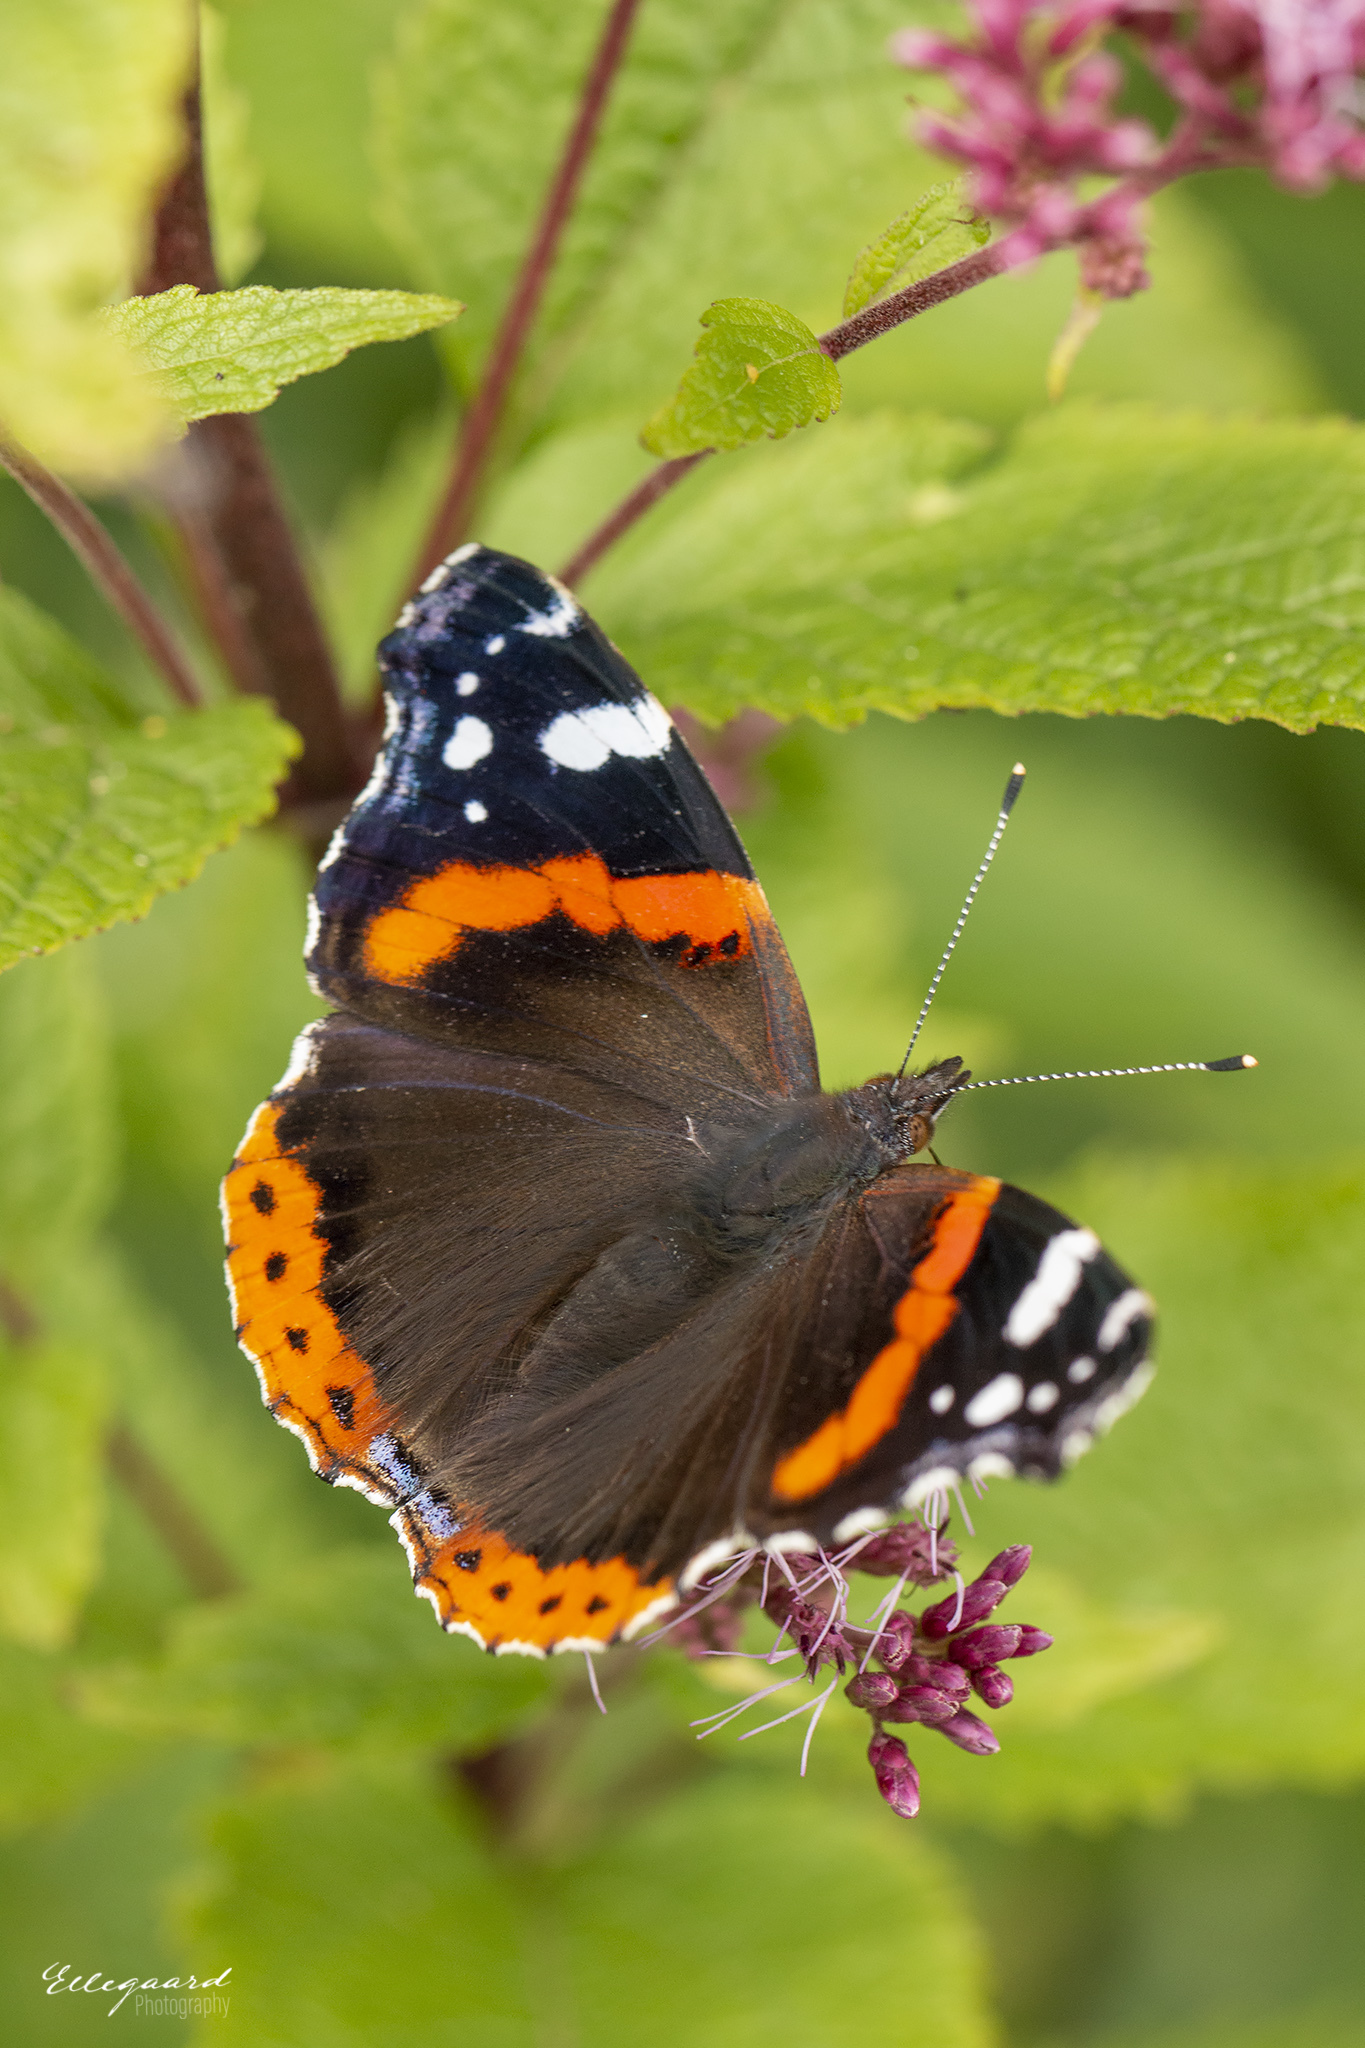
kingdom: Animalia
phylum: Arthropoda
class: Insecta
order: Lepidoptera
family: Nymphalidae
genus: Vanessa
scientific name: Vanessa atalanta
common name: Red admiral
